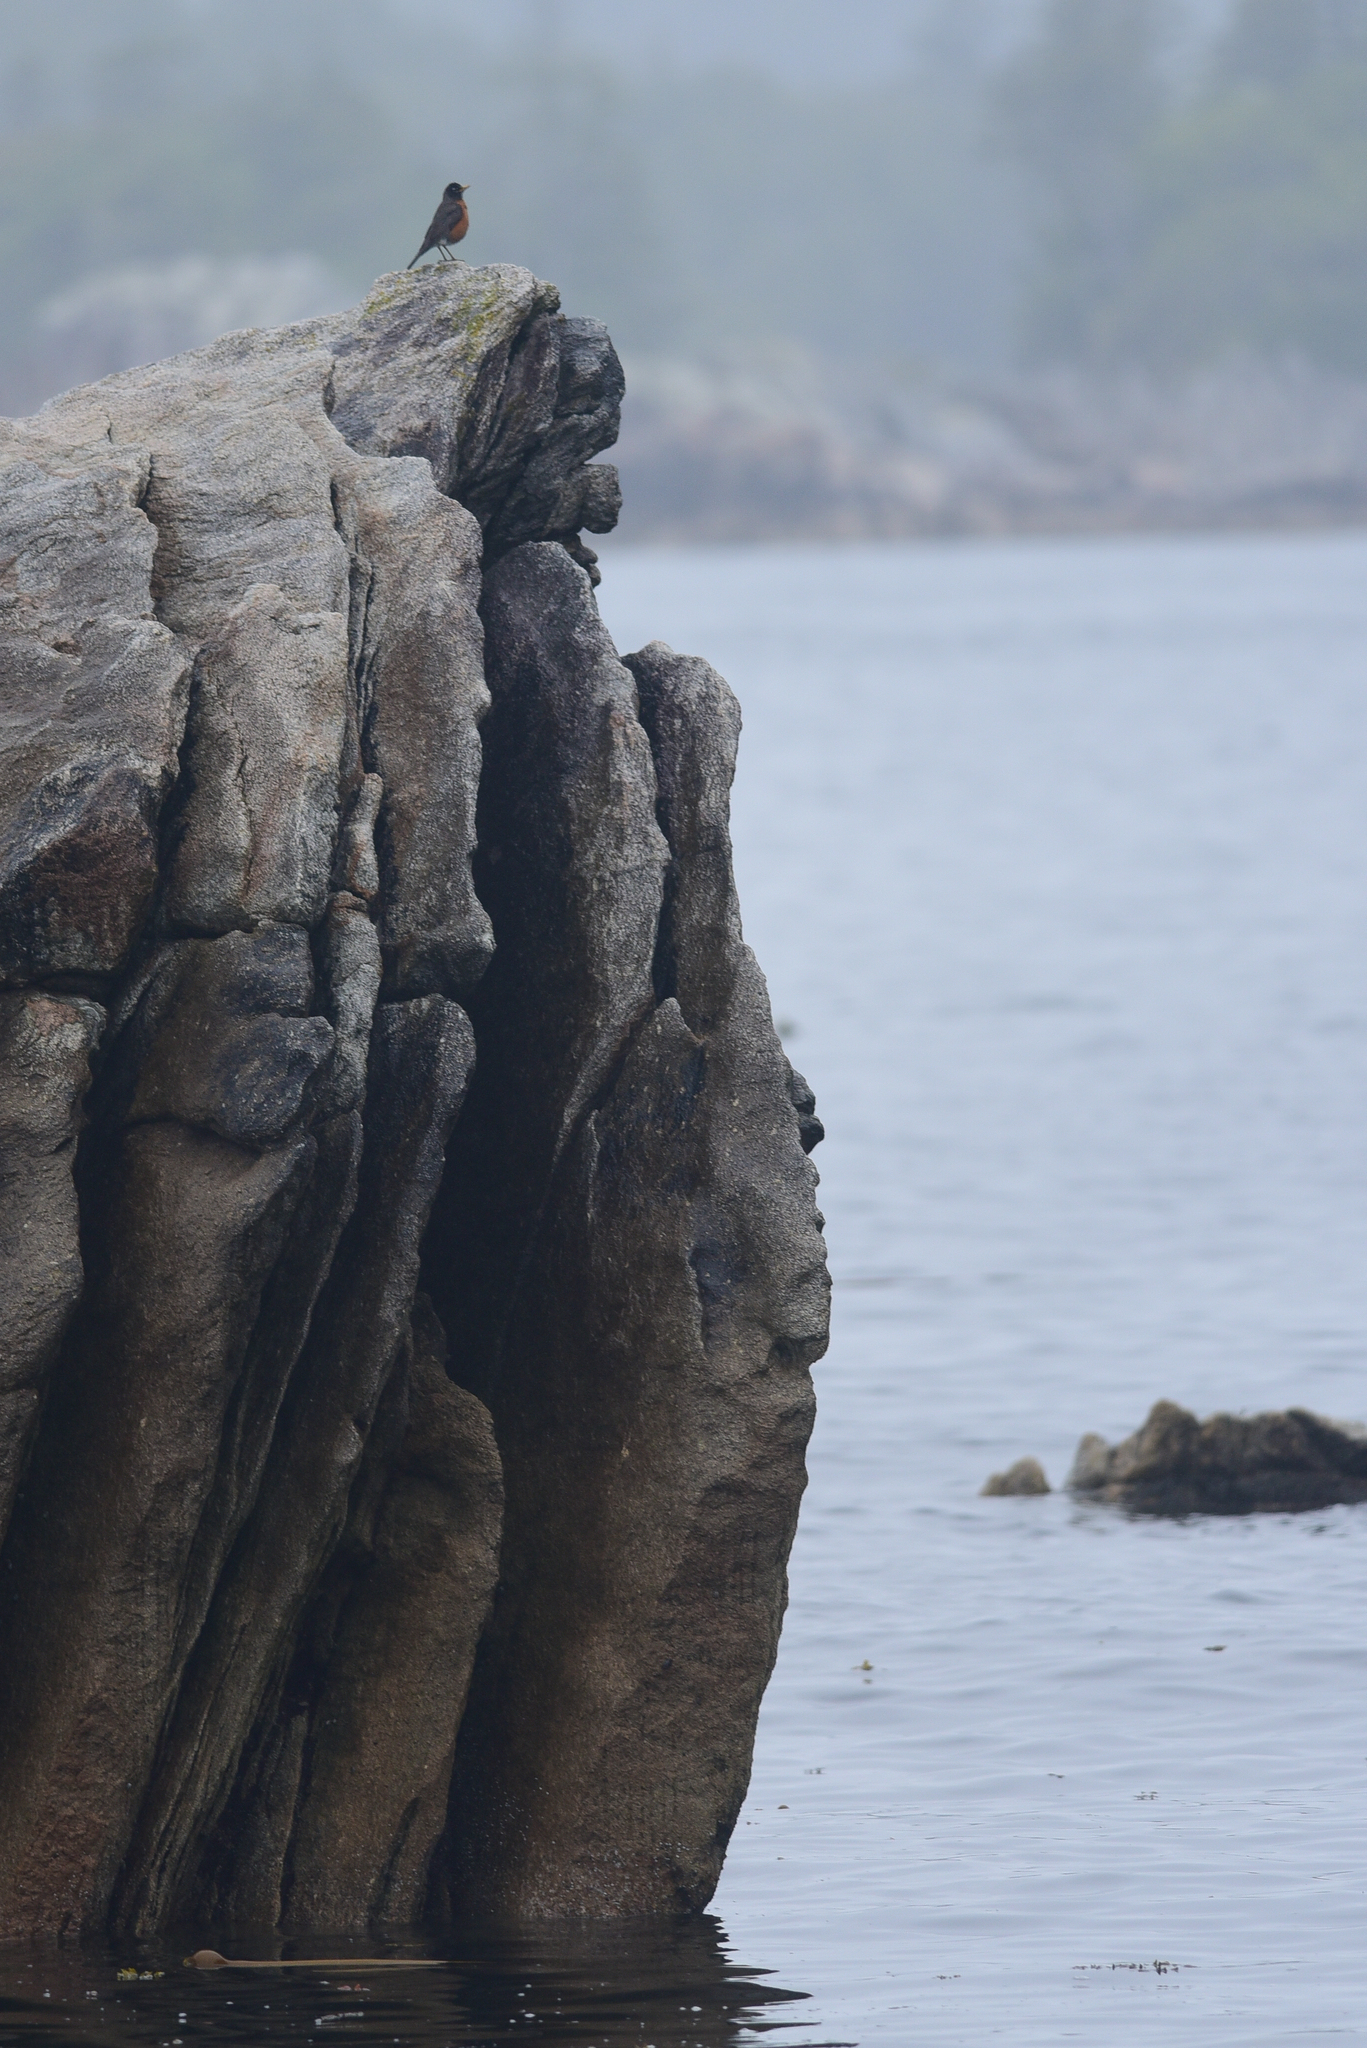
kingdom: Animalia
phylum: Chordata
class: Aves
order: Passeriformes
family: Turdidae
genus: Turdus
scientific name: Turdus migratorius
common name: American robin
